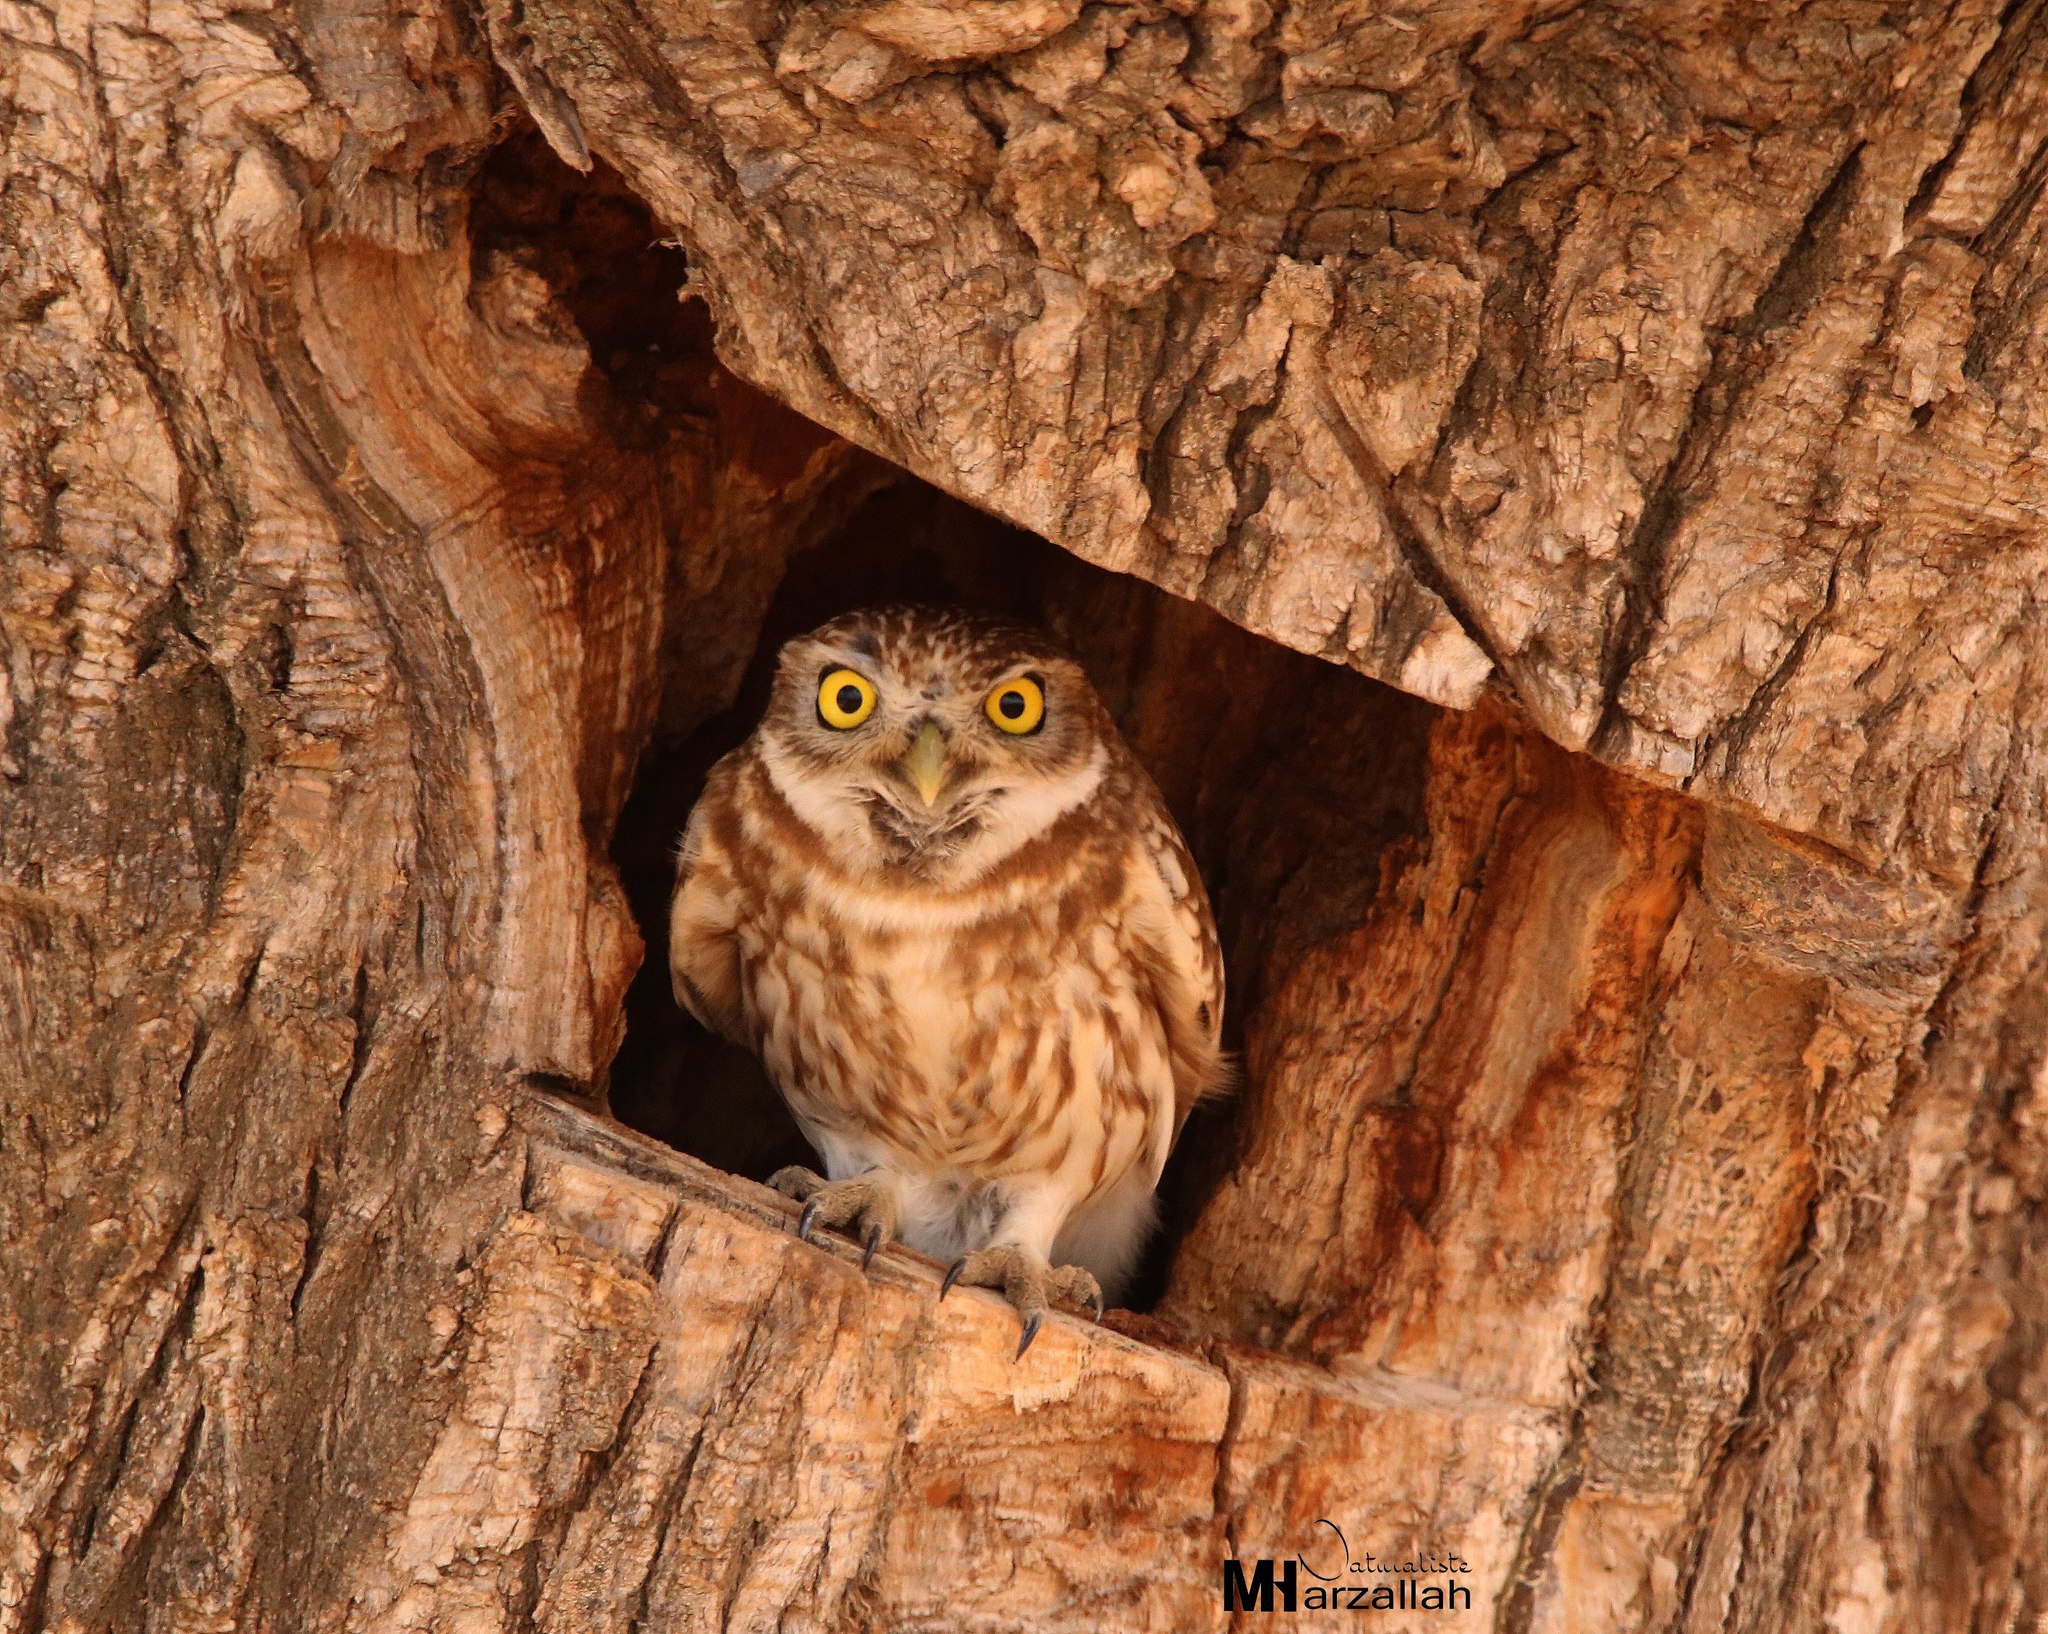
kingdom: Animalia
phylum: Chordata
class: Aves
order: Strigiformes
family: Strigidae
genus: Athene
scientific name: Athene noctua
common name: Little owl
